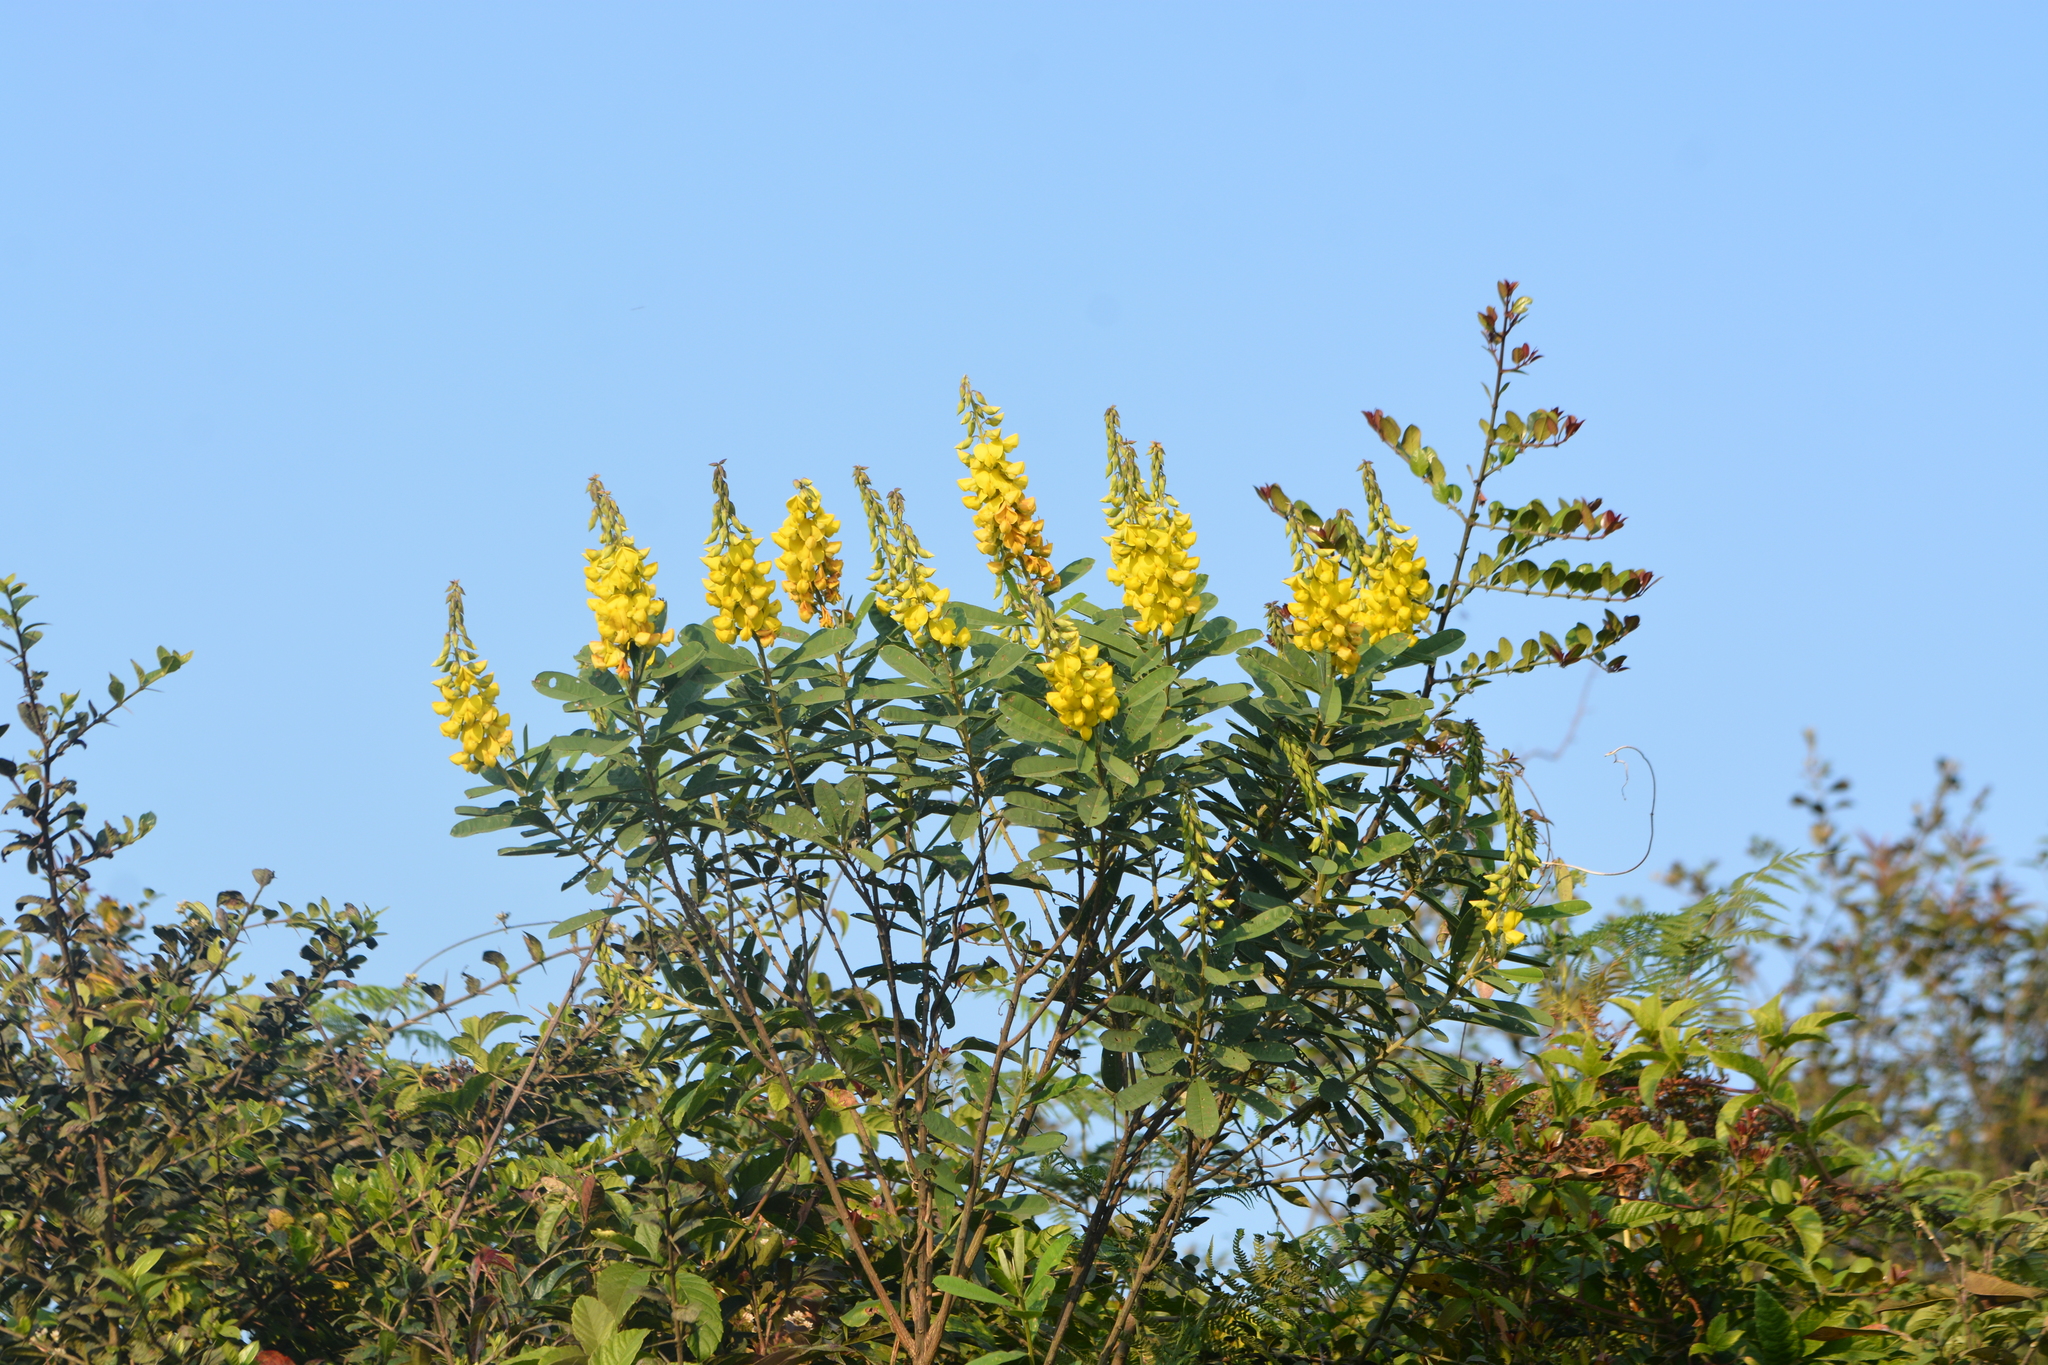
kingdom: Plantae
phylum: Tracheophyta
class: Magnoliopsida
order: Fabales
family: Fabaceae
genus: Crotalaria
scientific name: Crotalaria retusa
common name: Rattleweed
